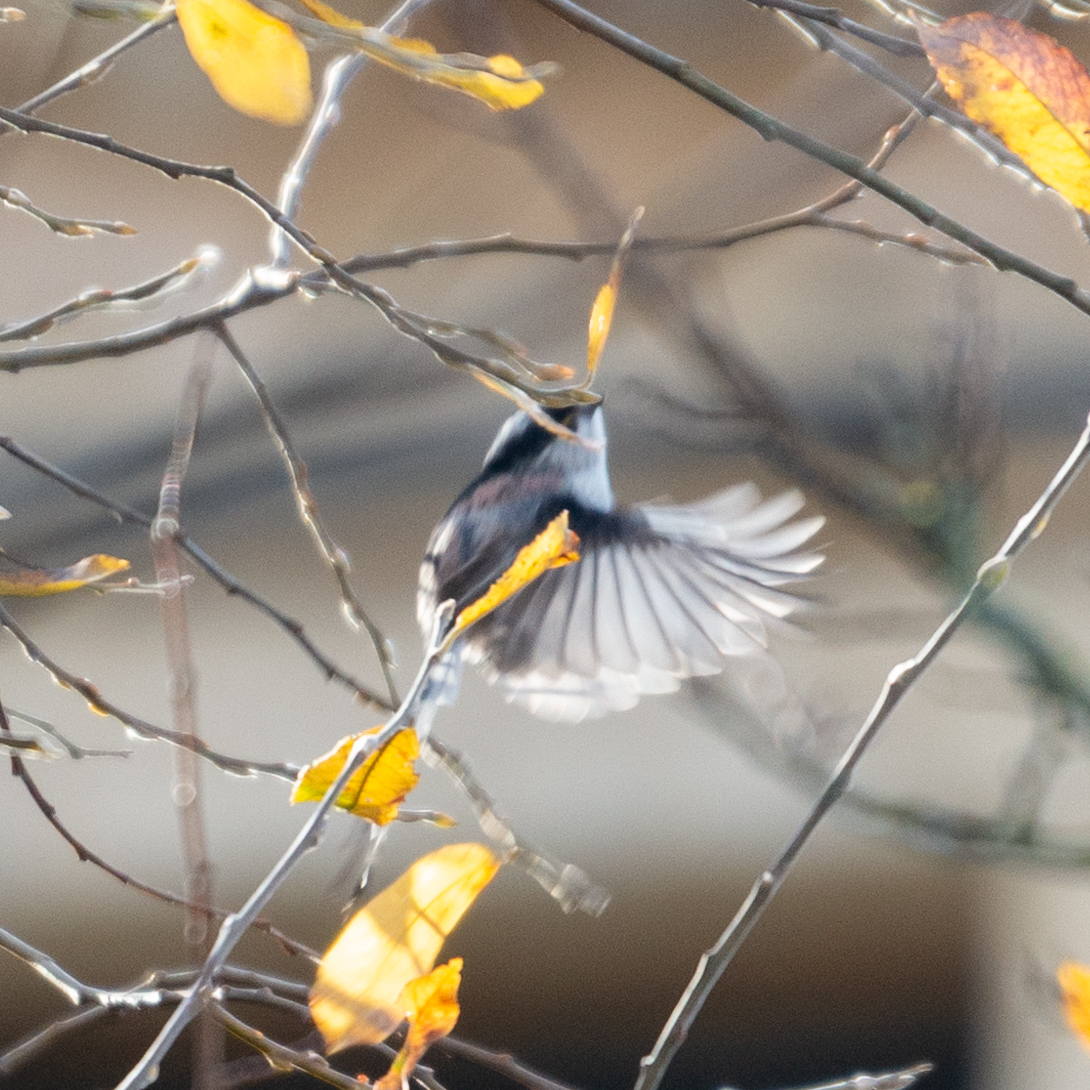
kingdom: Animalia
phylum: Chordata
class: Aves
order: Passeriformes
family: Aegithalidae
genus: Aegithalos
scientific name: Aegithalos caudatus
